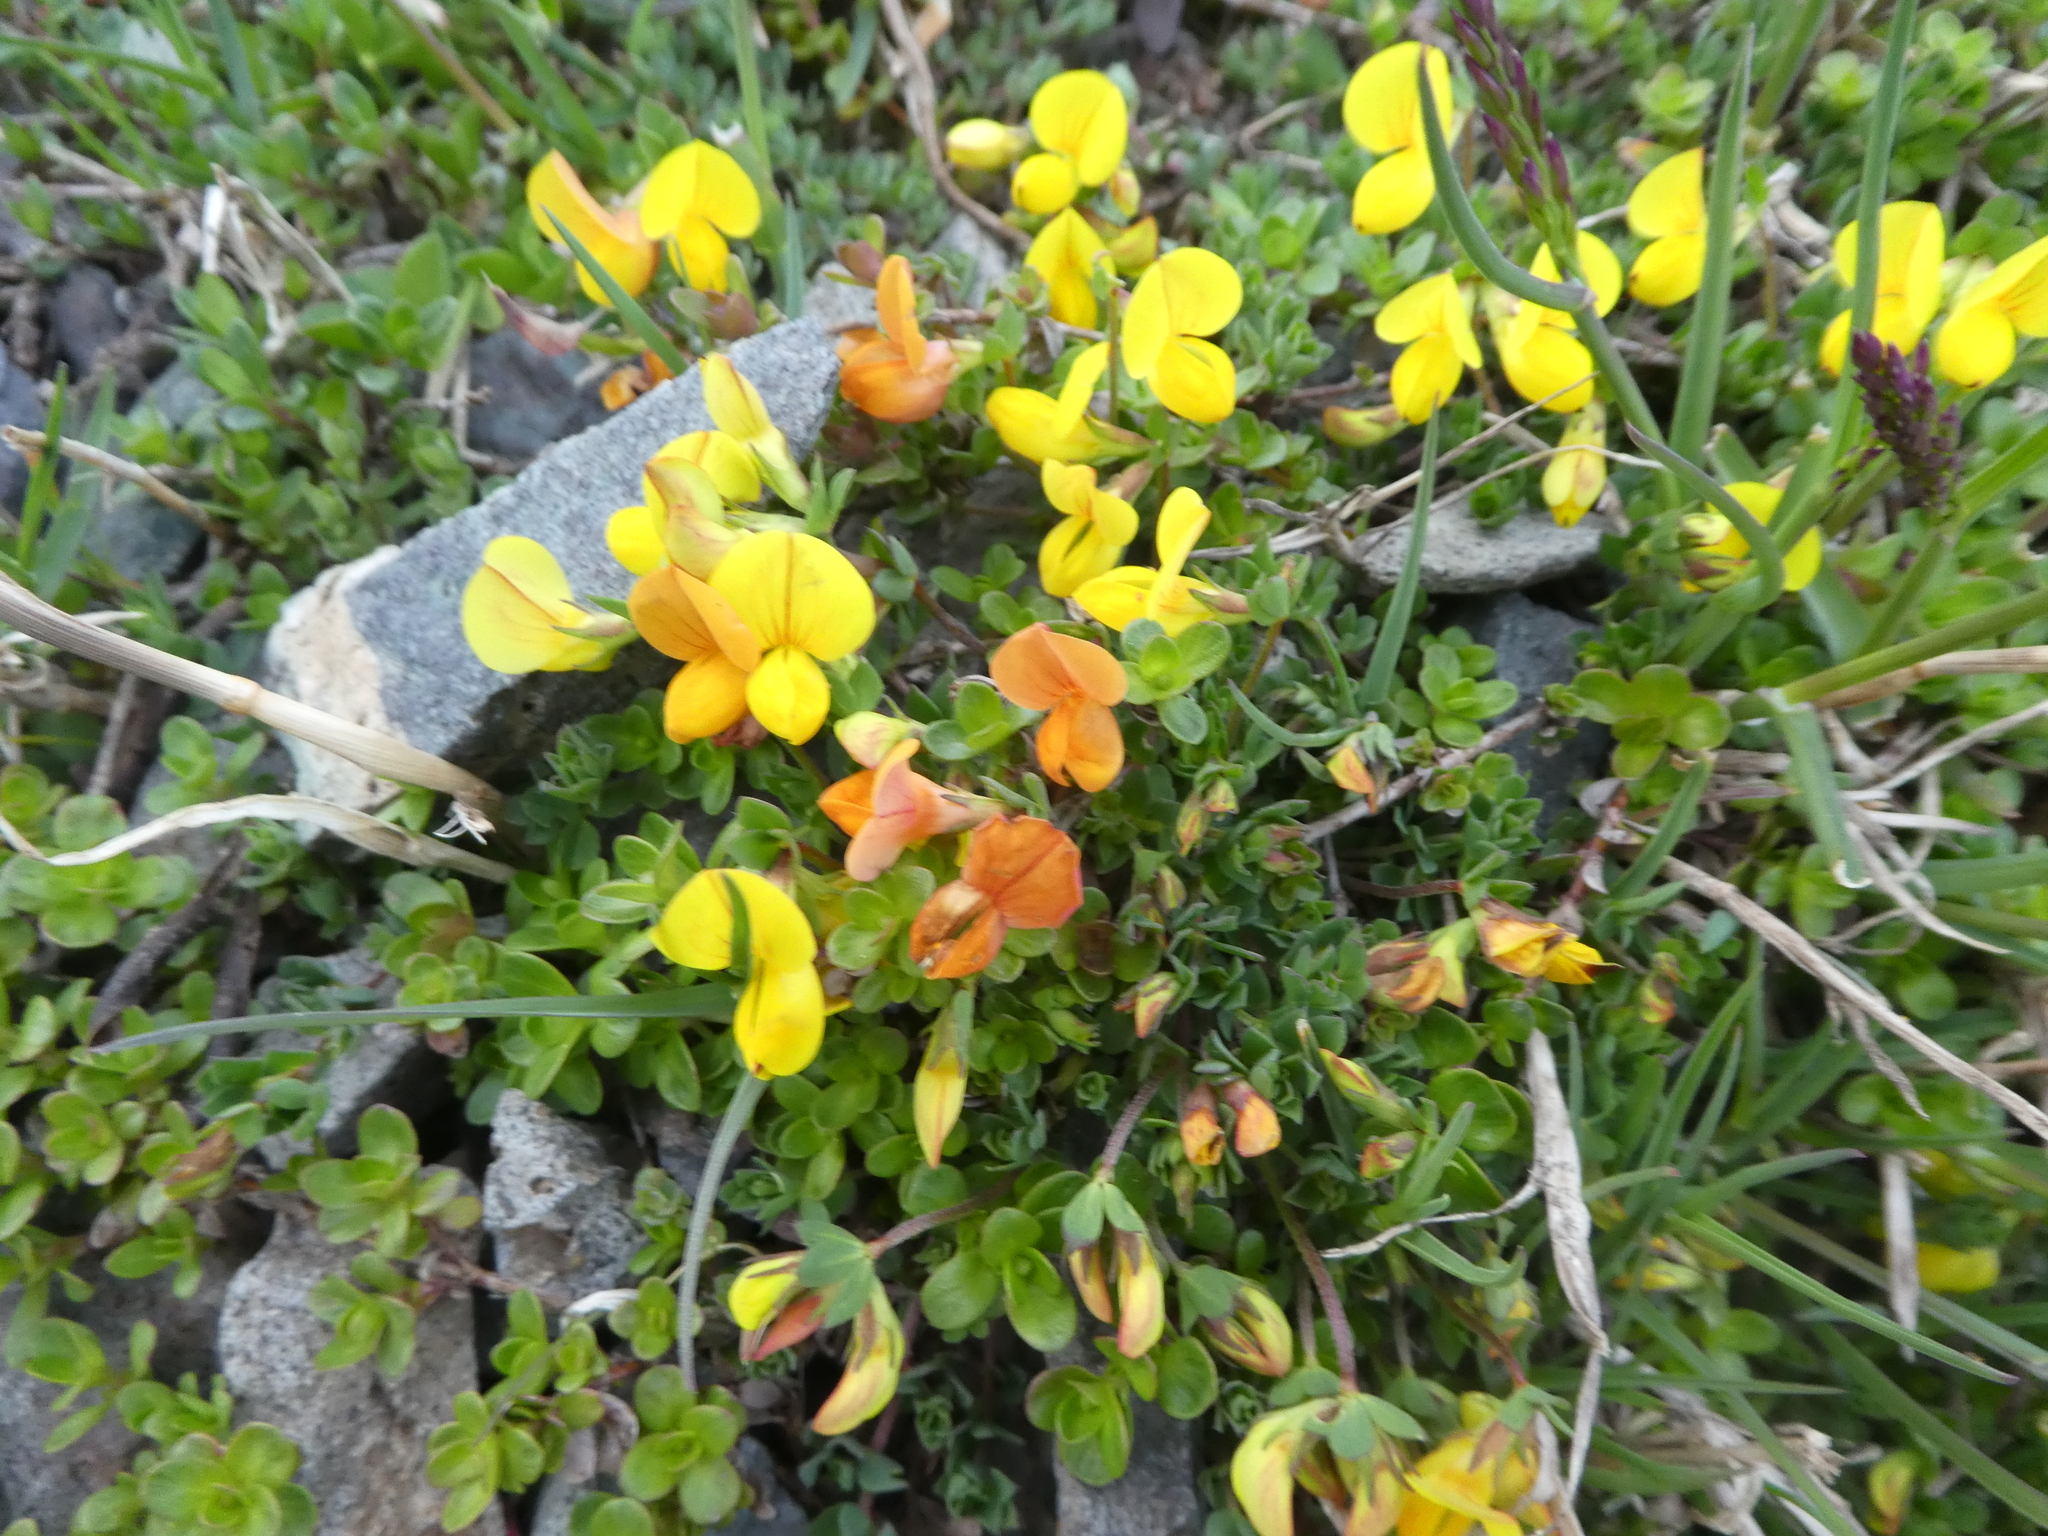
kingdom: Plantae
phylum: Tracheophyta
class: Magnoliopsida
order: Fabales
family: Fabaceae
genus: Lotus
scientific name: Lotus alpinus
